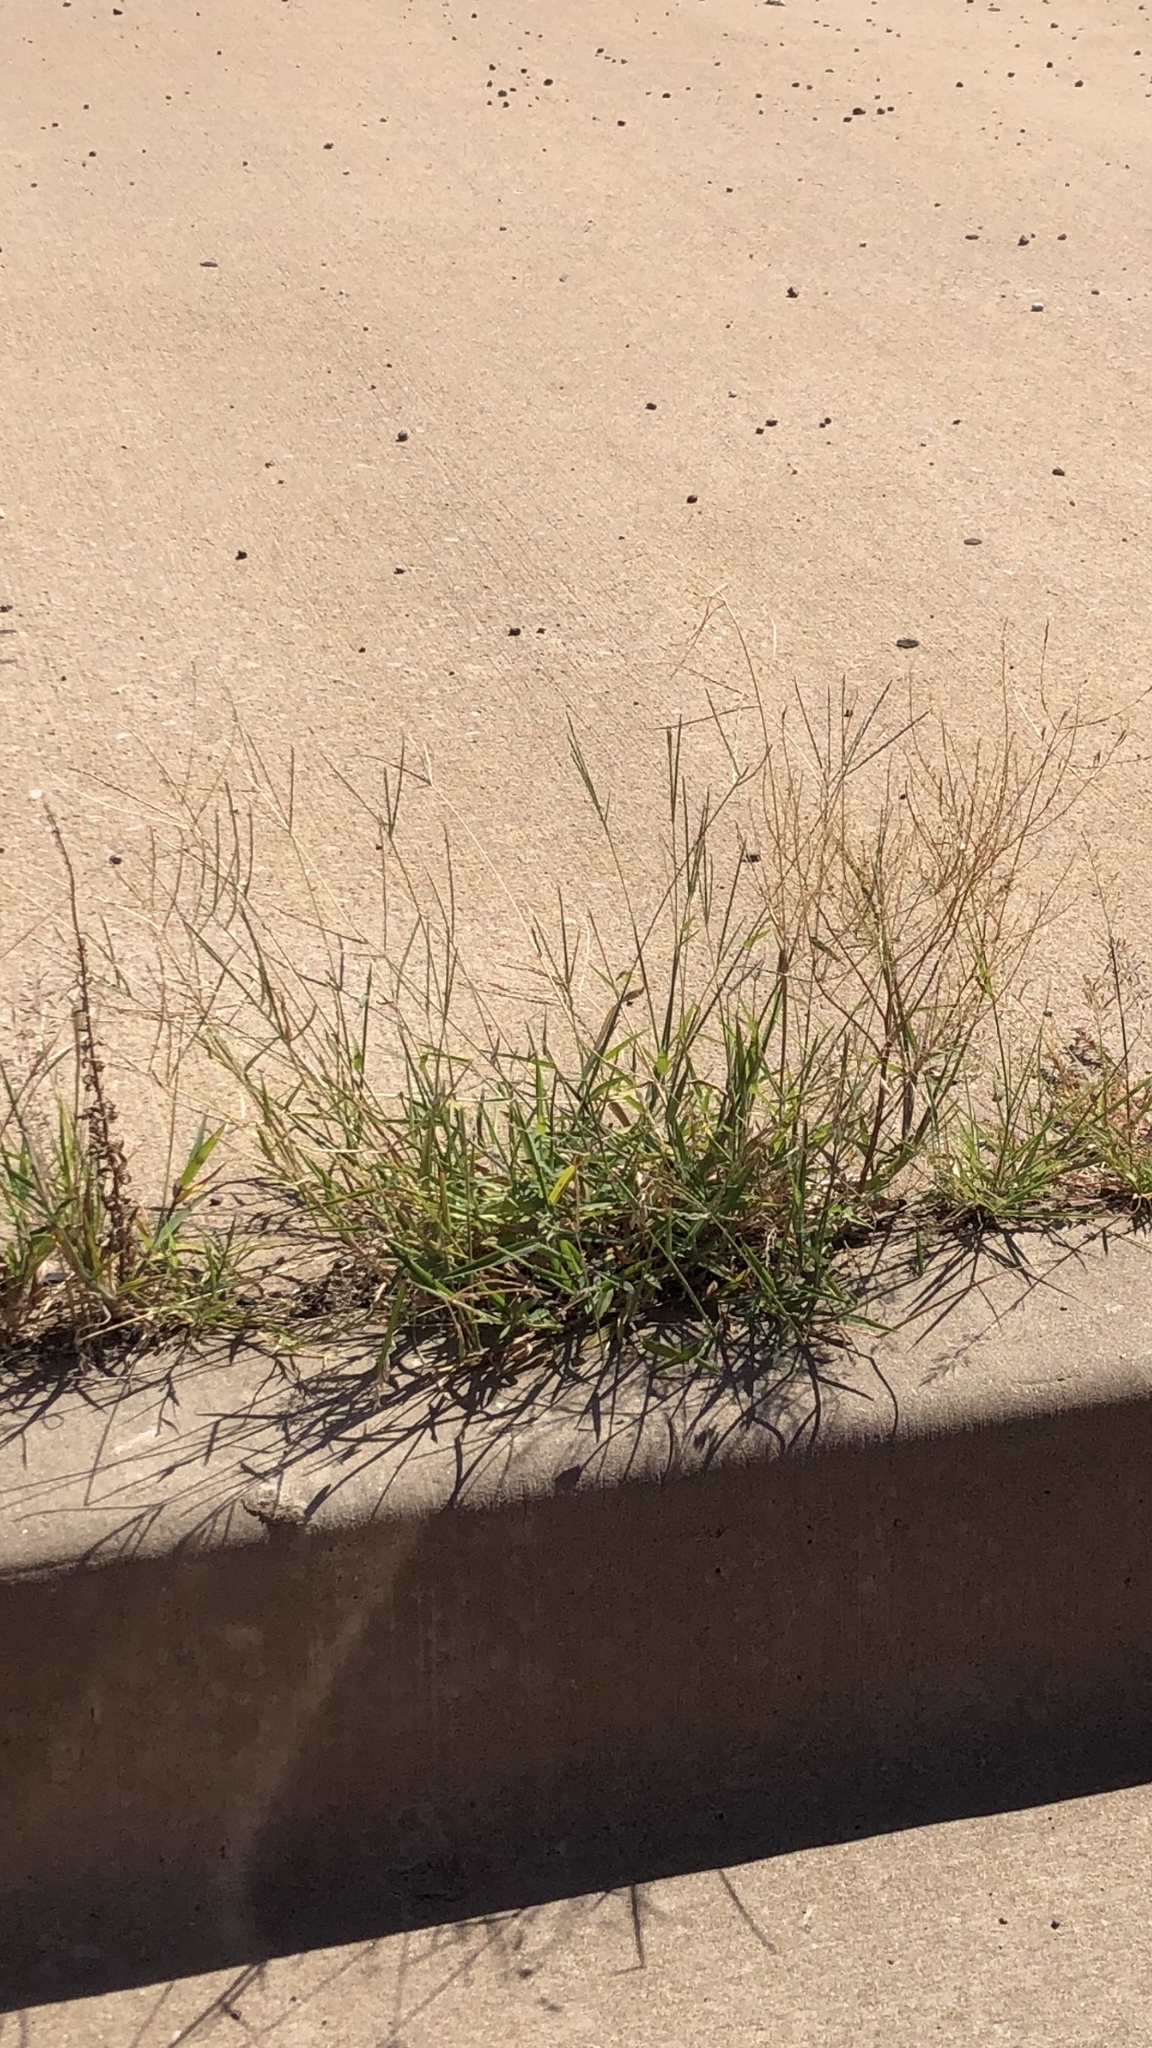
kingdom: Plantae
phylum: Tracheophyta
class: Liliopsida
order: Poales
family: Poaceae
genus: Cynodon
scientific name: Cynodon dactylon
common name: Bermuda grass
